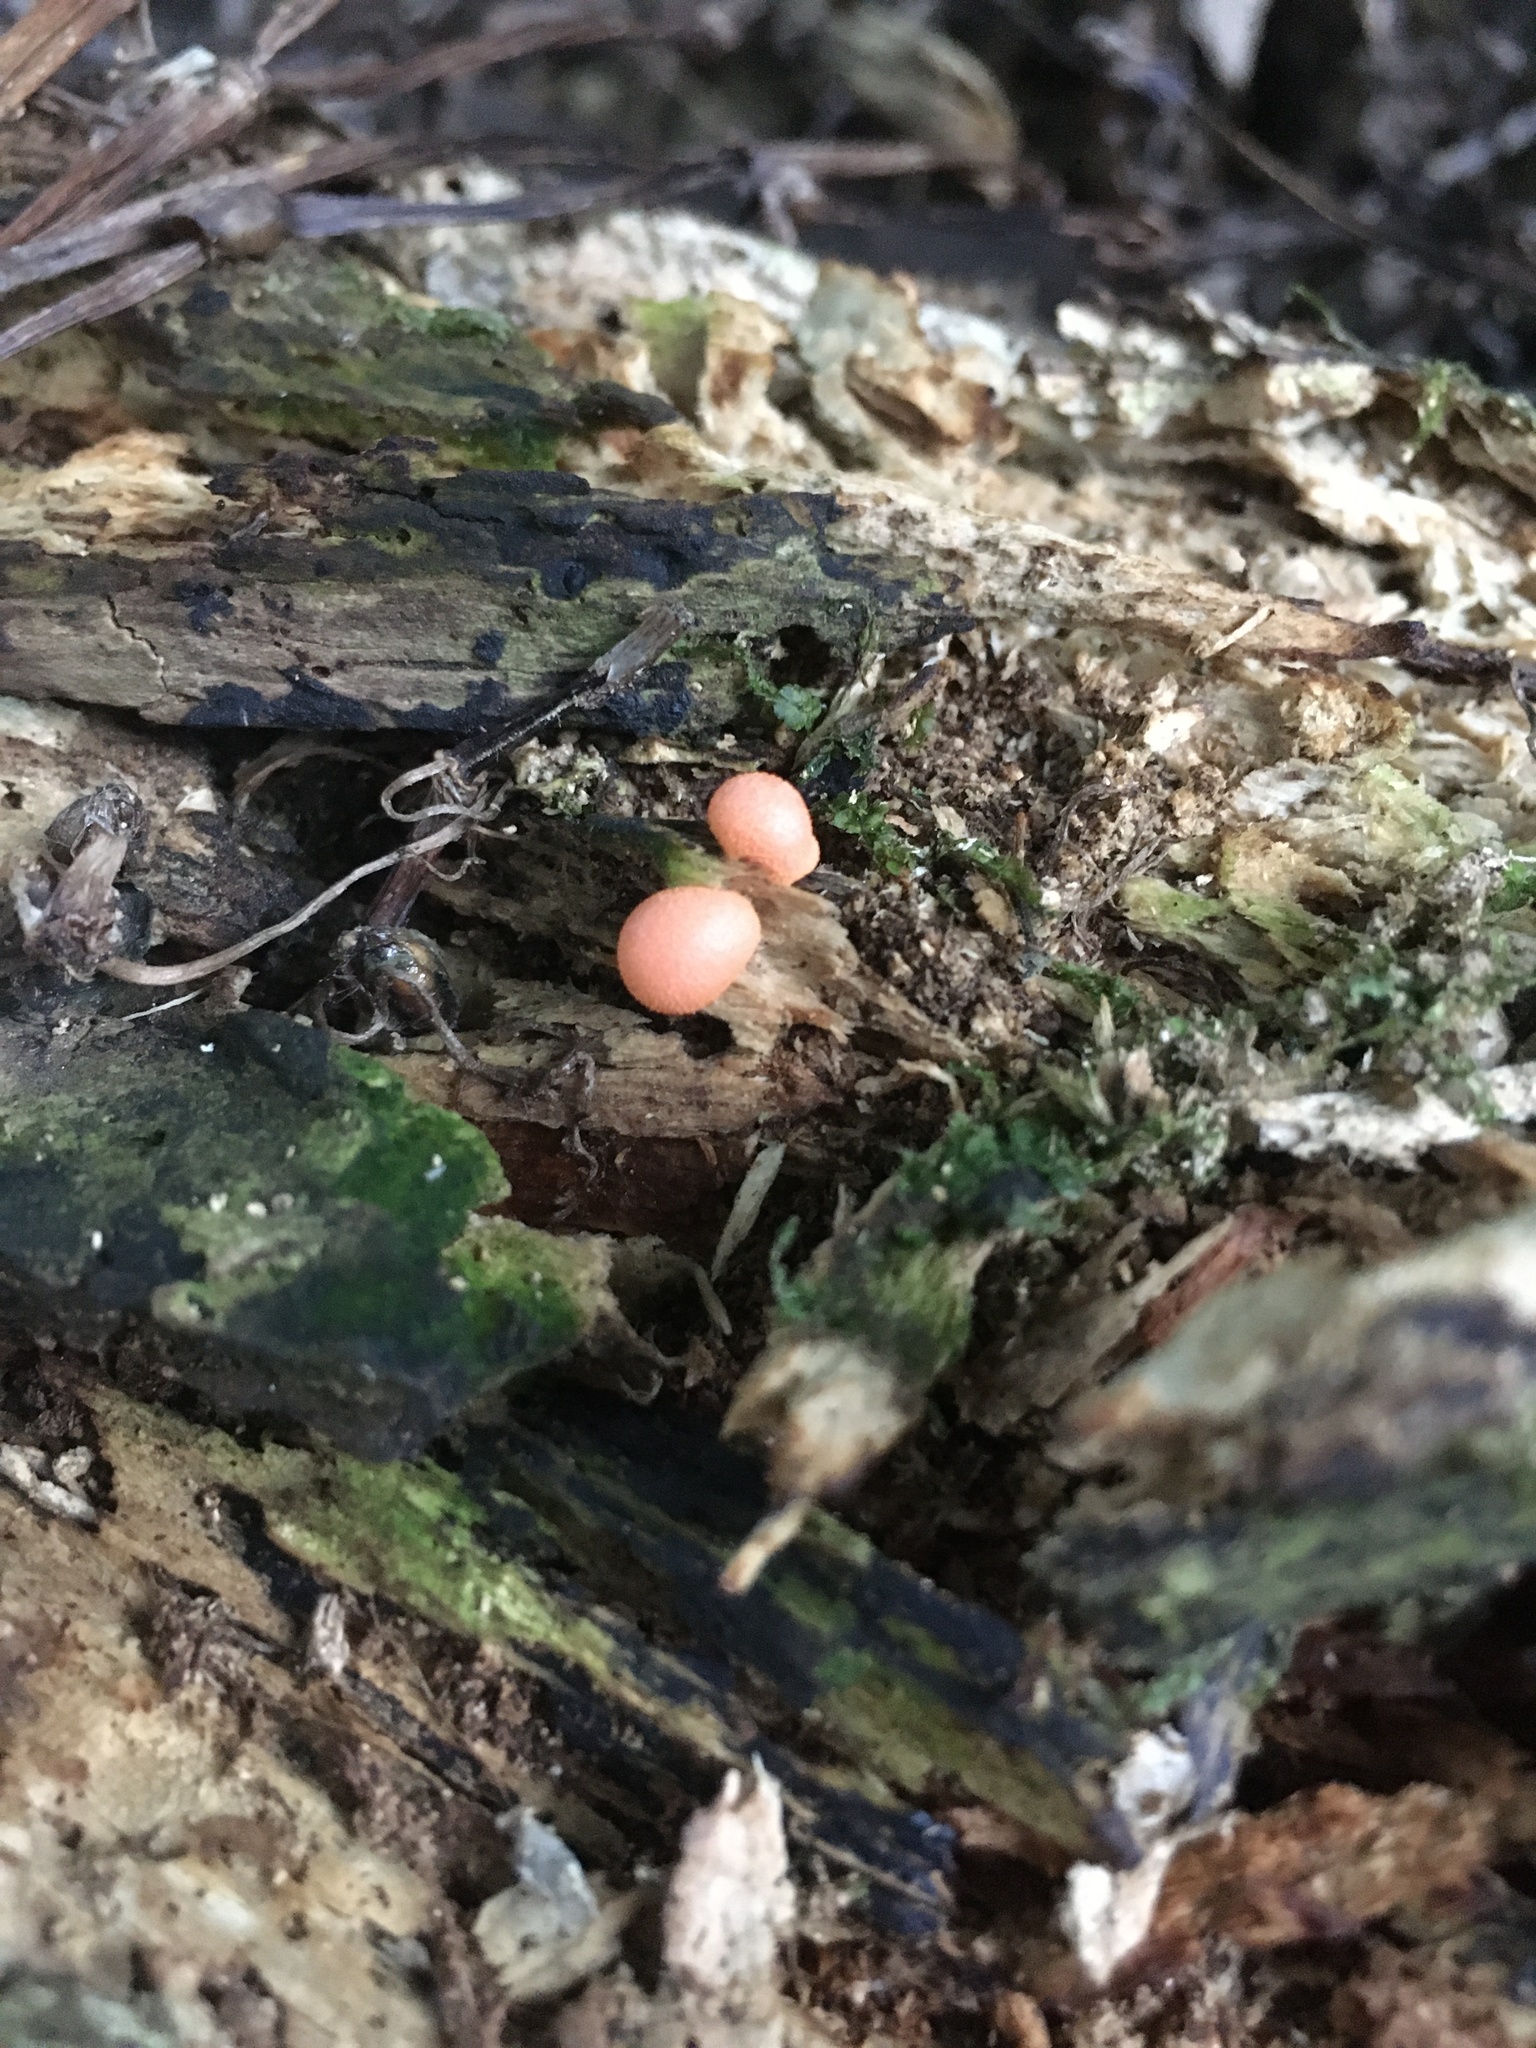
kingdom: Protozoa
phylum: Mycetozoa
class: Myxomycetes
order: Cribrariales
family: Tubiferaceae
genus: Lycogala
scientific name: Lycogala epidendrum
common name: Wolf's milk
